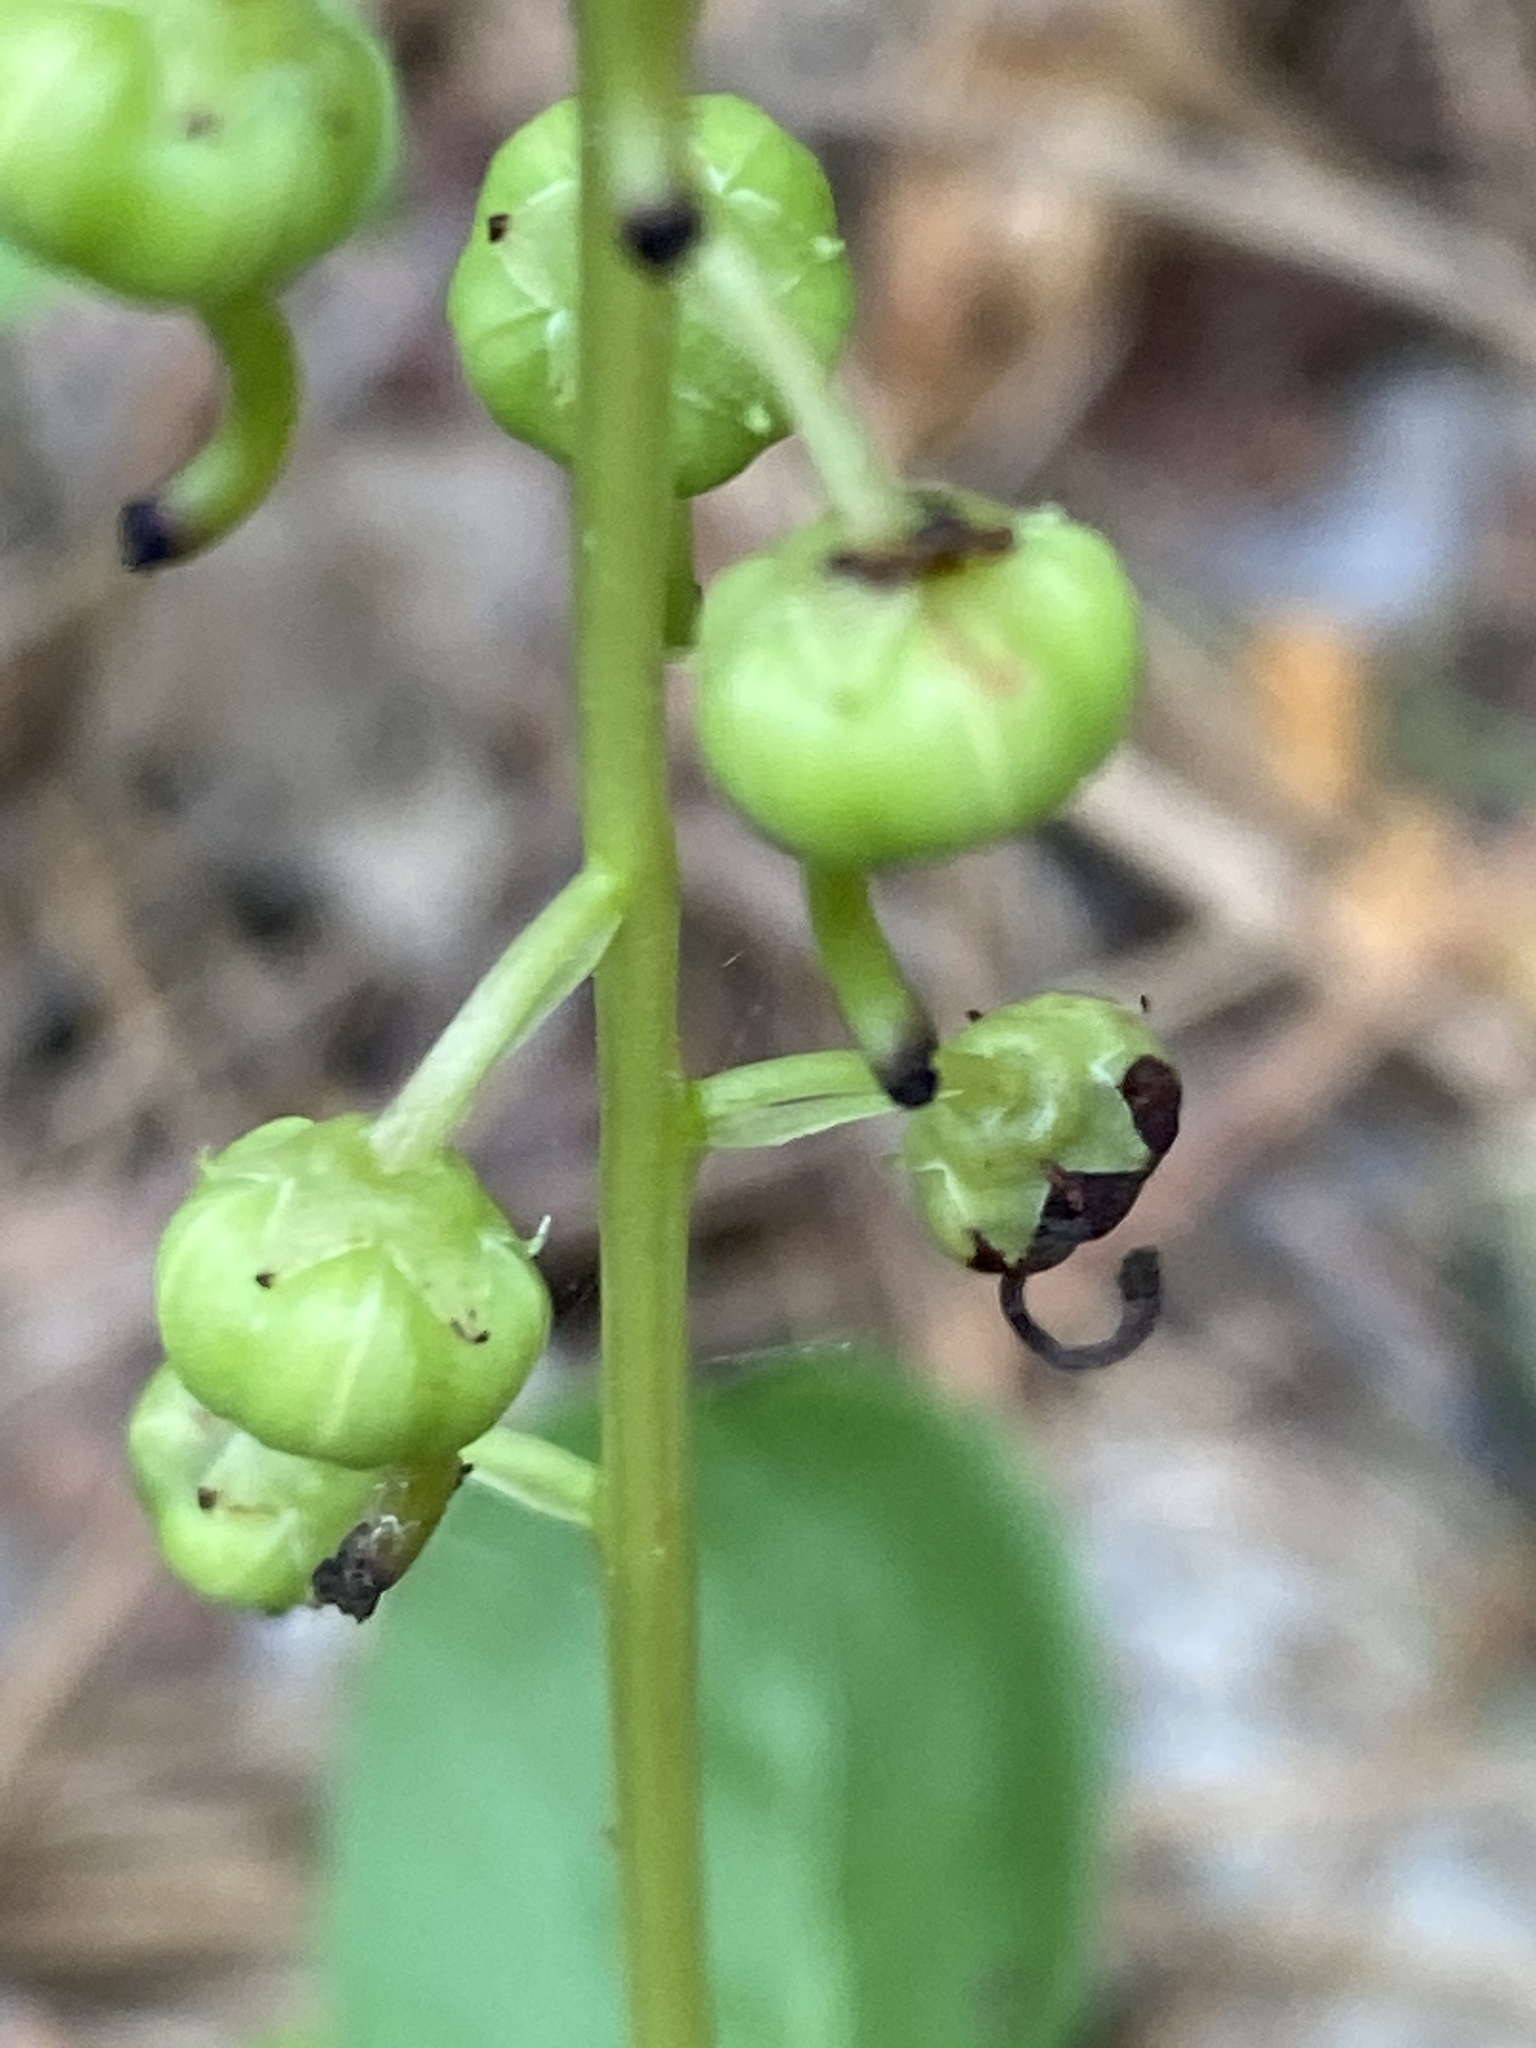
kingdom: Plantae
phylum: Tracheophyta
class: Magnoliopsida
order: Ericales
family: Ericaceae
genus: Pyrola
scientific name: Pyrola elliptica
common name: Shinleaf
